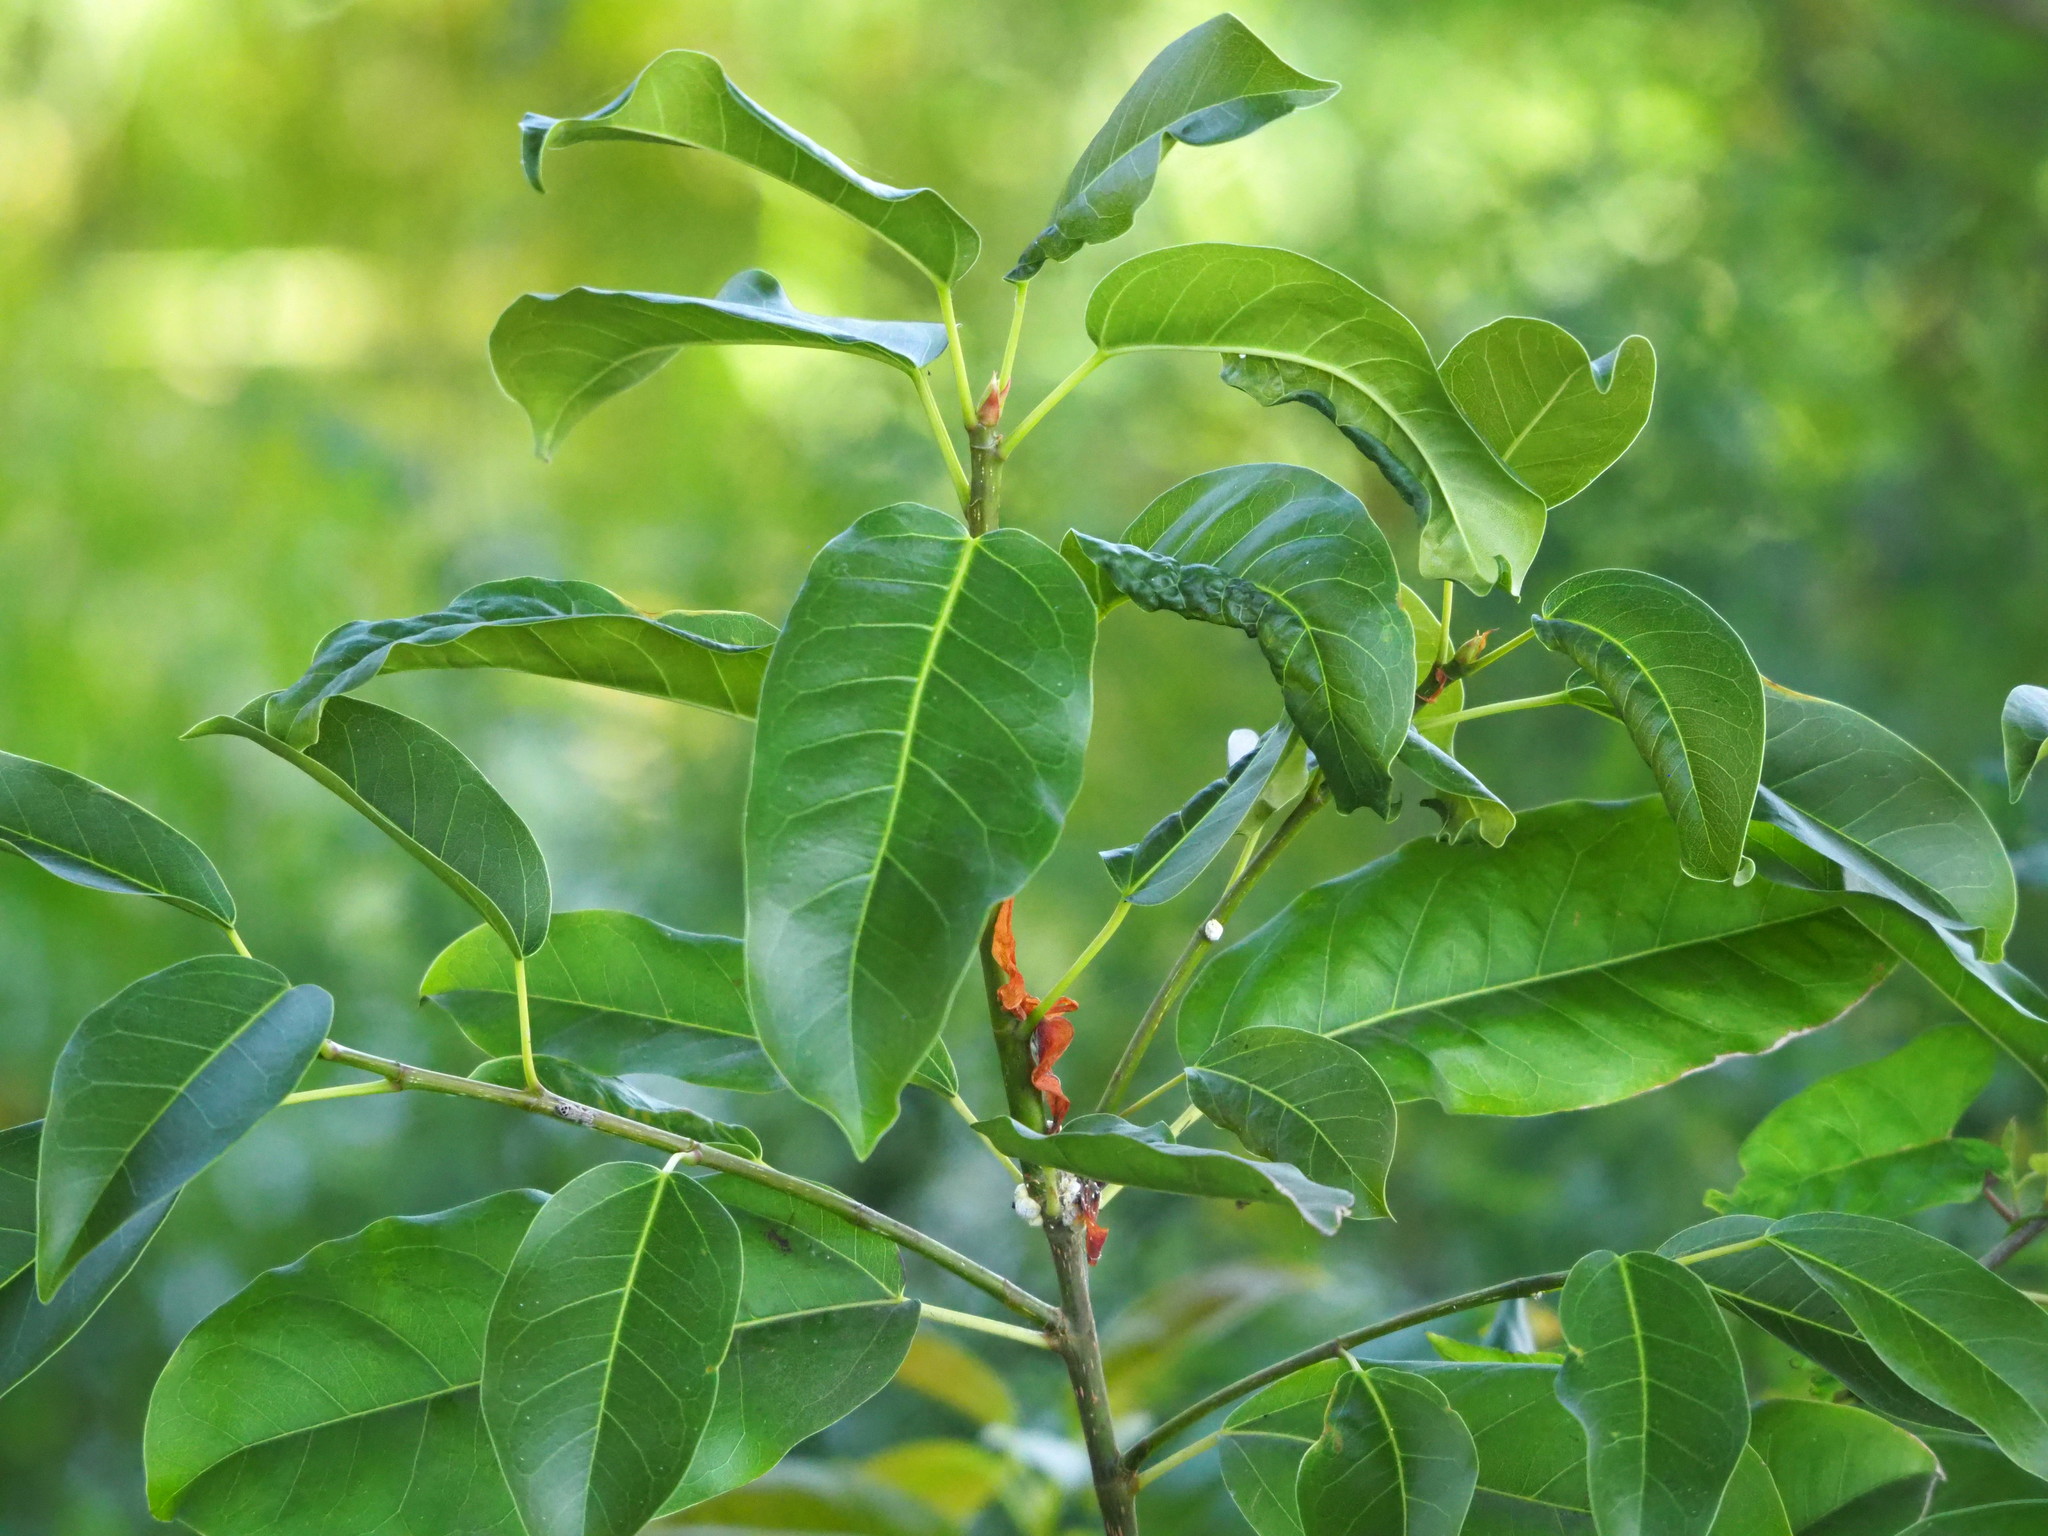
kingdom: Plantae
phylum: Tracheophyta
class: Magnoliopsida
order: Rosales
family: Moraceae
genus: Ficus
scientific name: Ficus subpisocarpa
